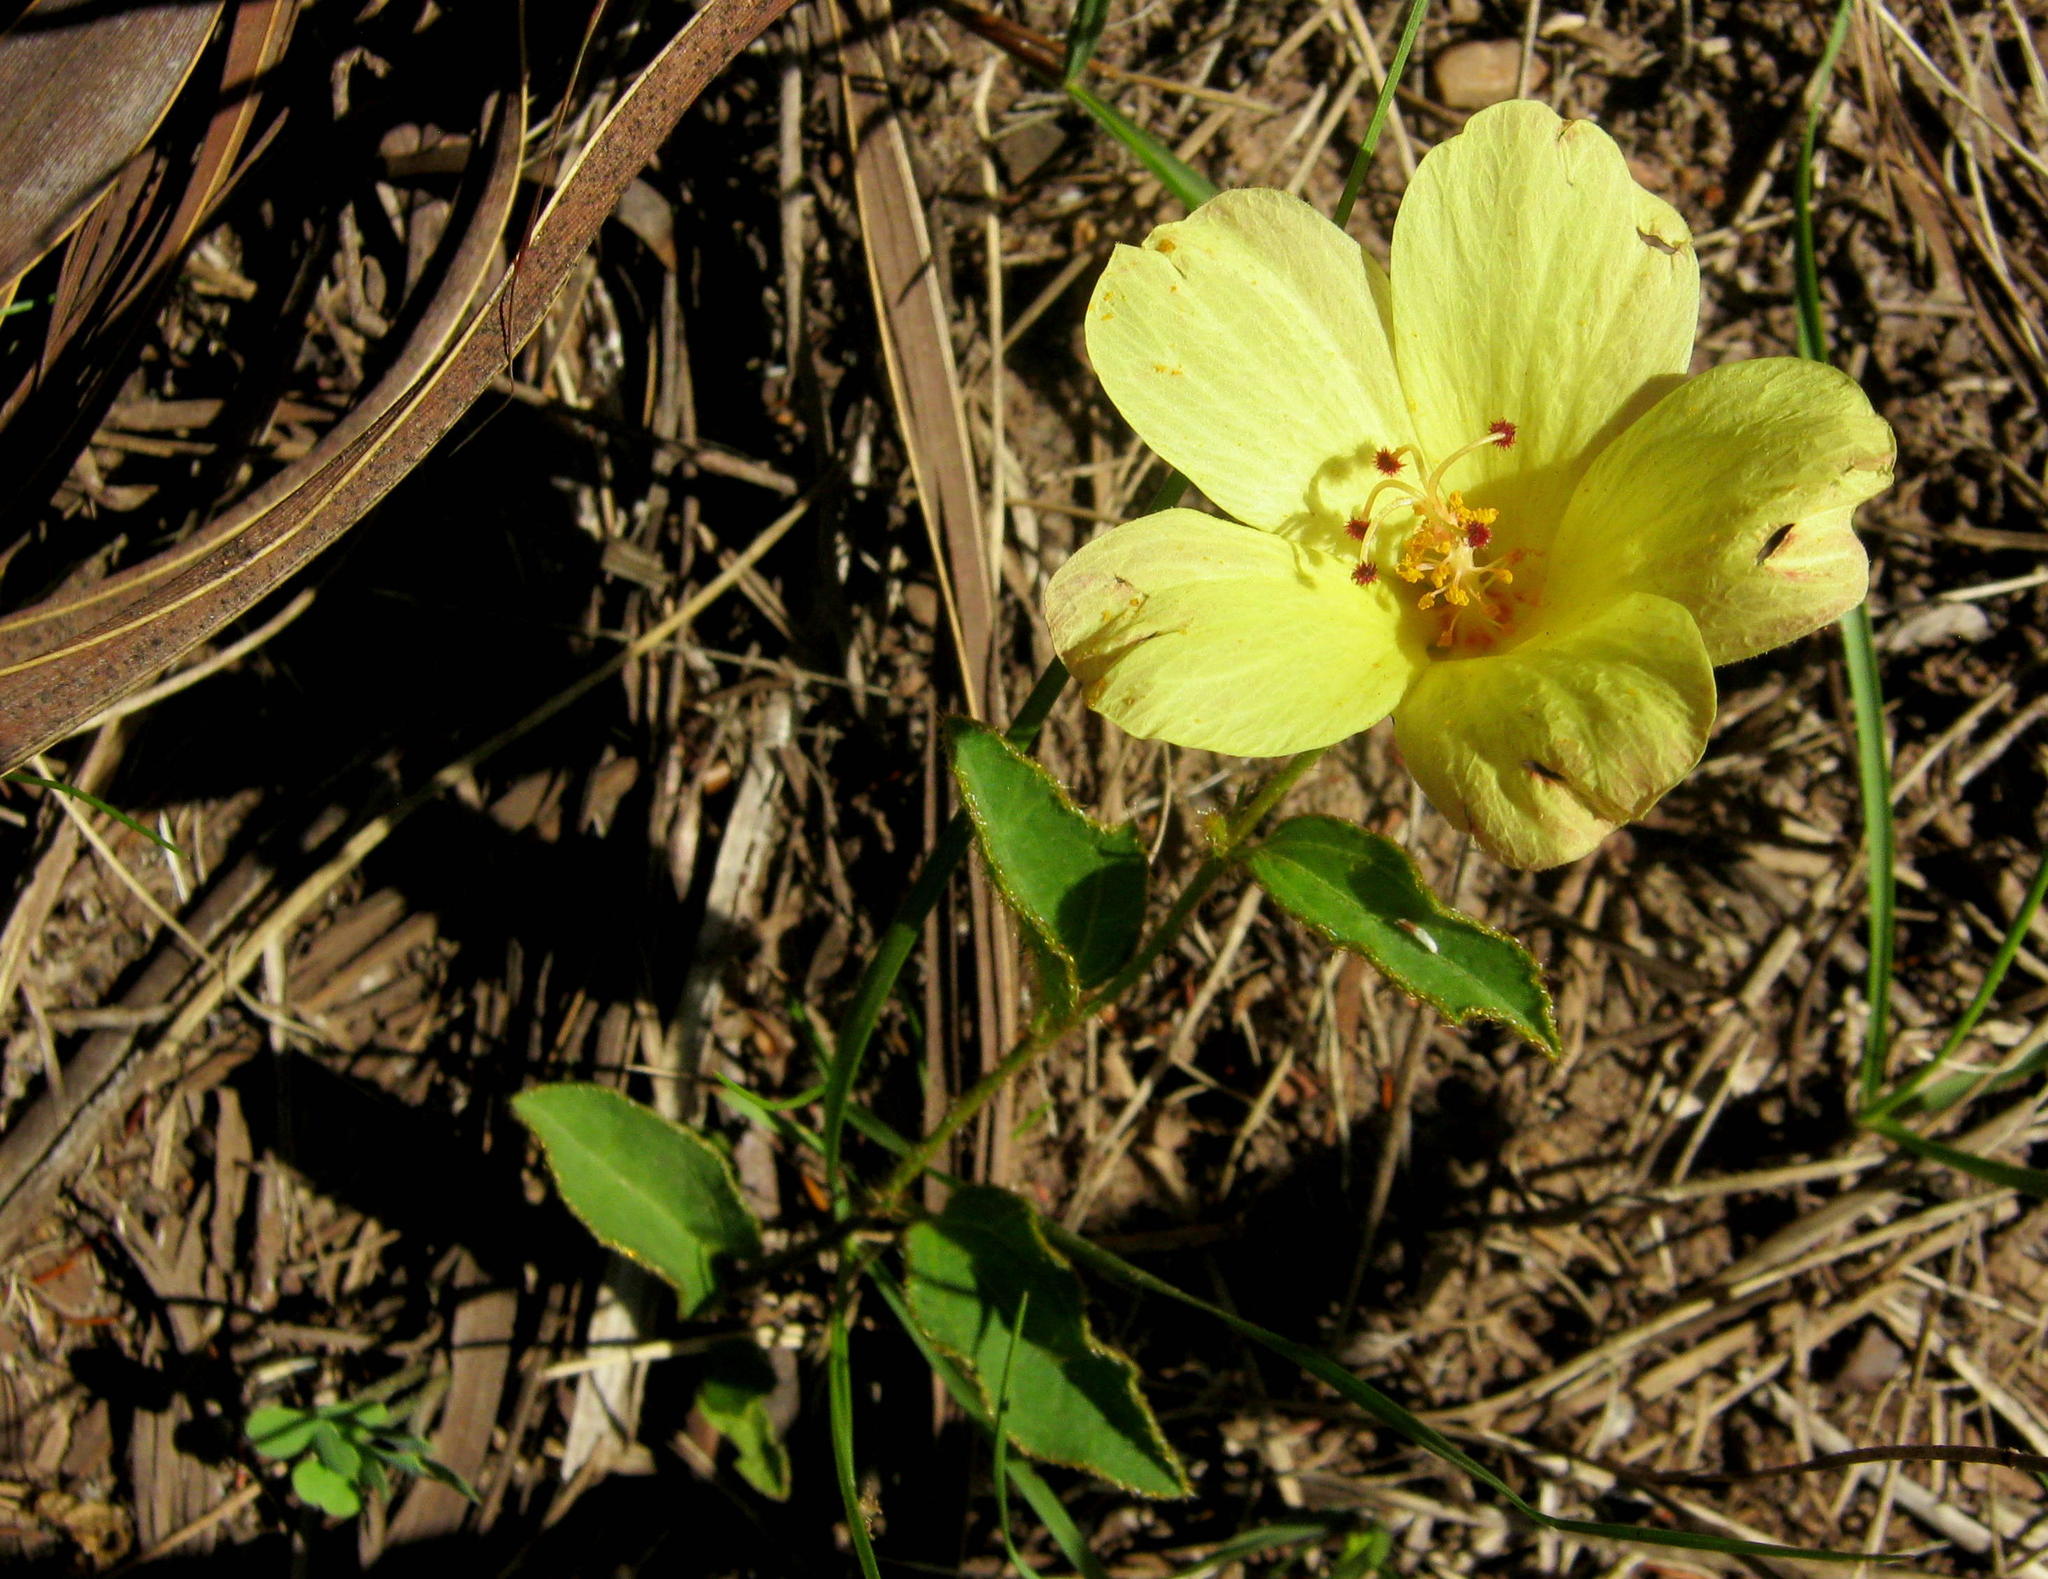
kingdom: Plantae
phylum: Tracheophyta
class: Magnoliopsida
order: Malvales
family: Malvaceae
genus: Hibiscus
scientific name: Hibiscus aethiopicus
